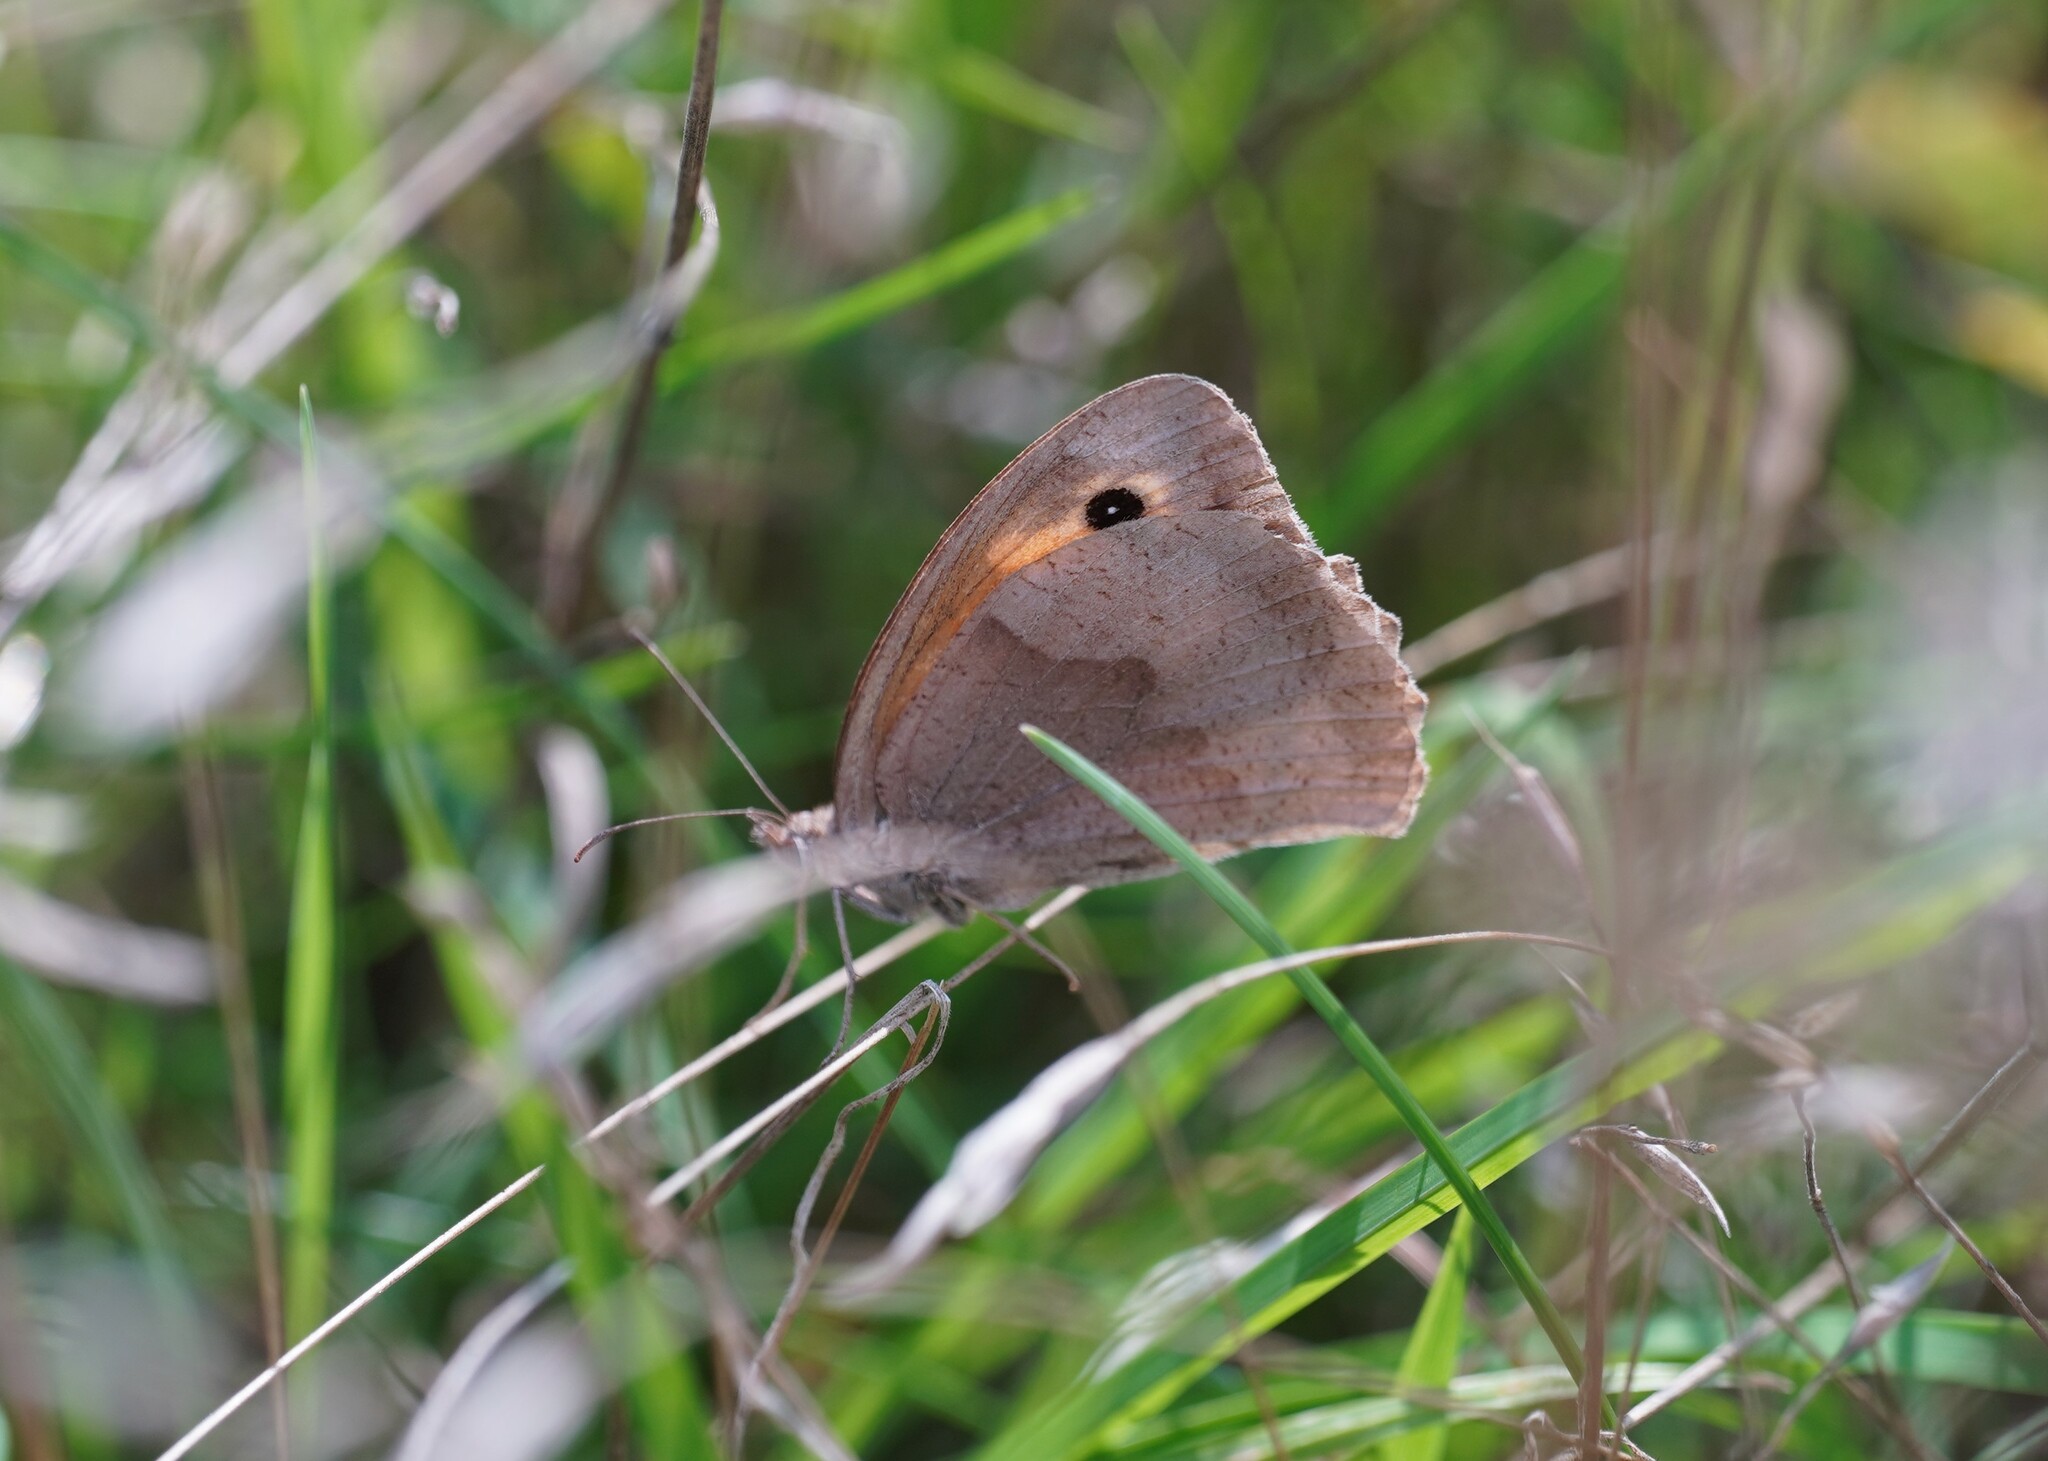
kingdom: Animalia
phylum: Arthropoda
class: Insecta
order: Lepidoptera
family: Nymphalidae
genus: Maniola
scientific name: Maniola jurtina
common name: Meadow brown
